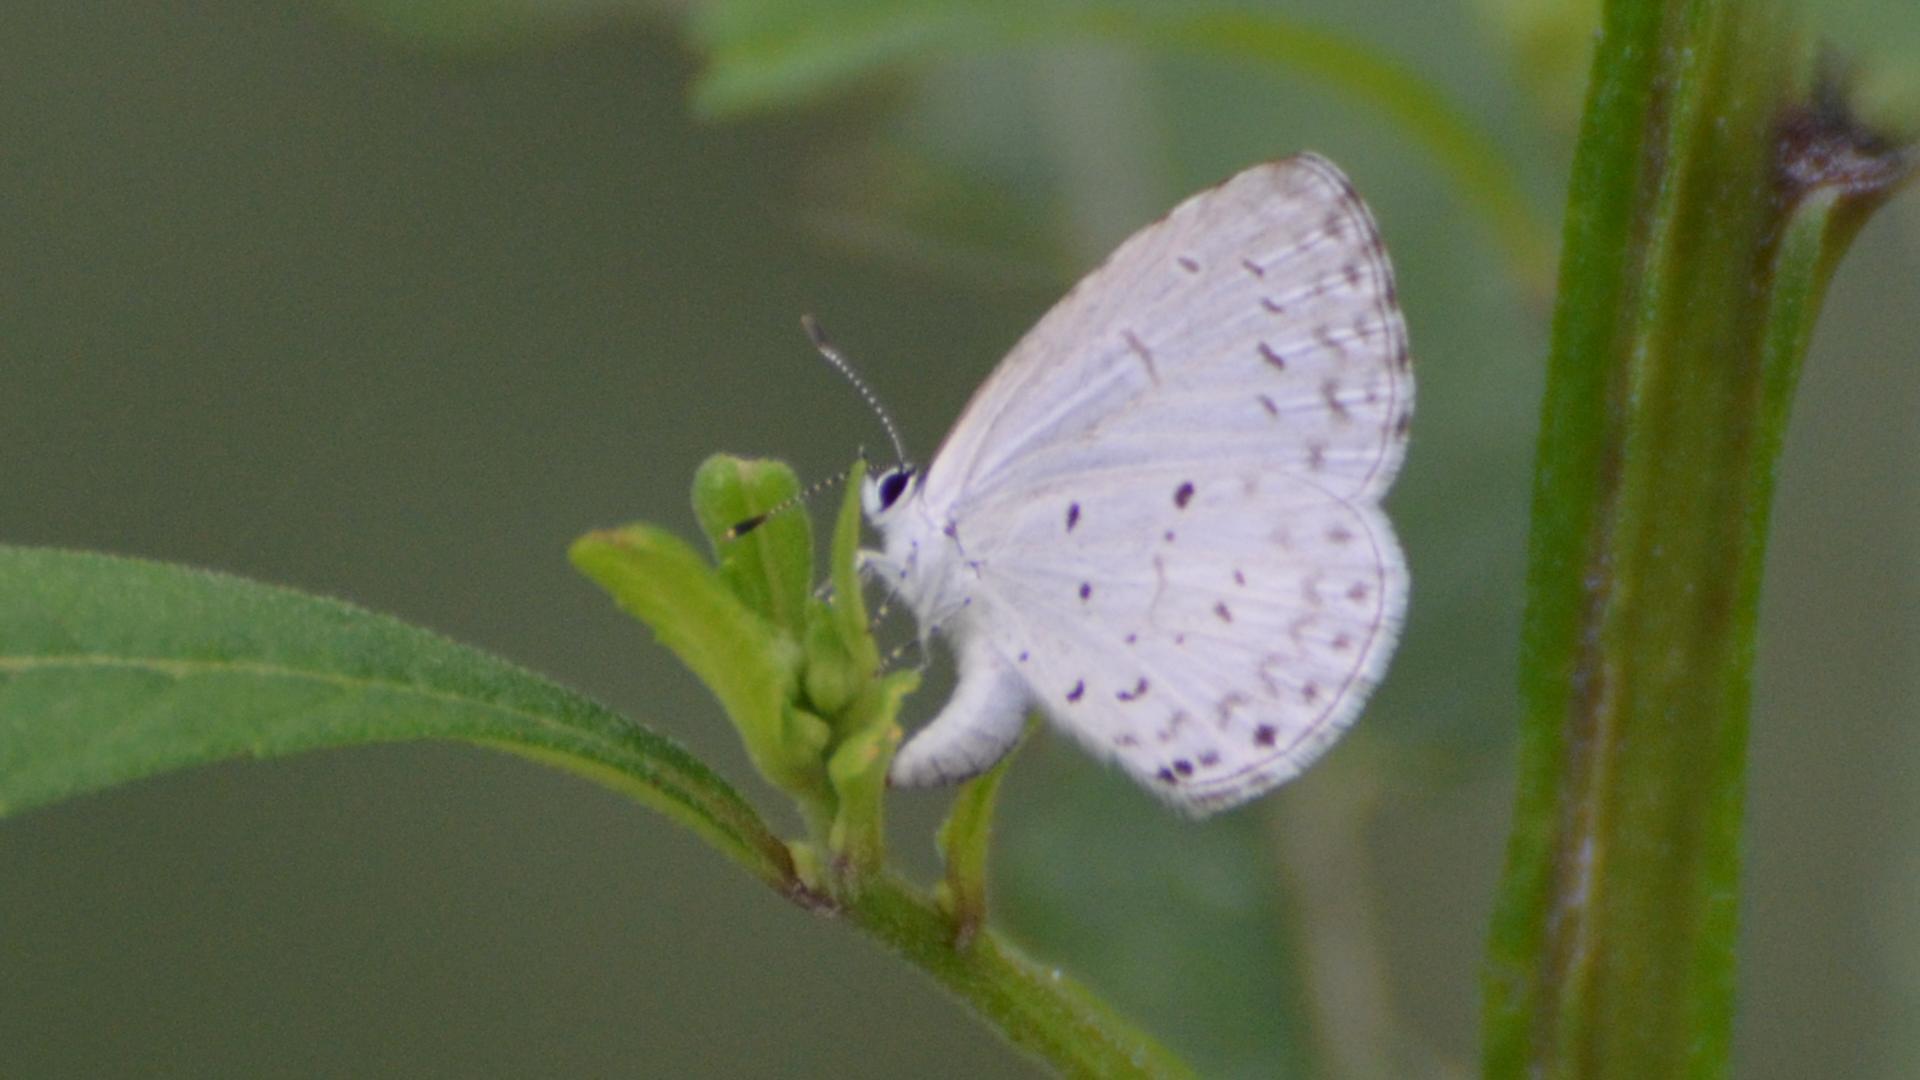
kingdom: Animalia
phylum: Arthropoda
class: Insecta
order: Lepidoptera
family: Lycaenidae
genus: Cyaniris
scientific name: Cyaniris neglecta
